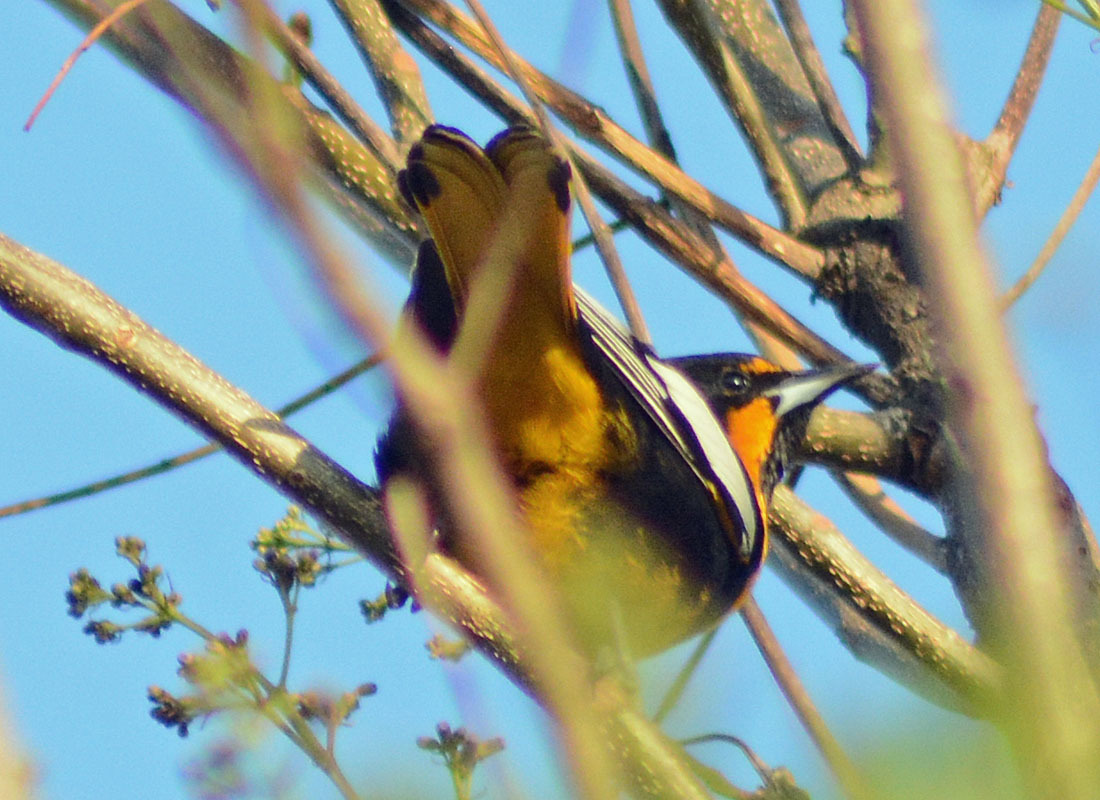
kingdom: Animalia
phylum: Chordata
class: Aves
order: Passeriformes
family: Icteridae
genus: Icterus
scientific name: Icterus abeillei
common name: Black-backed oriole
